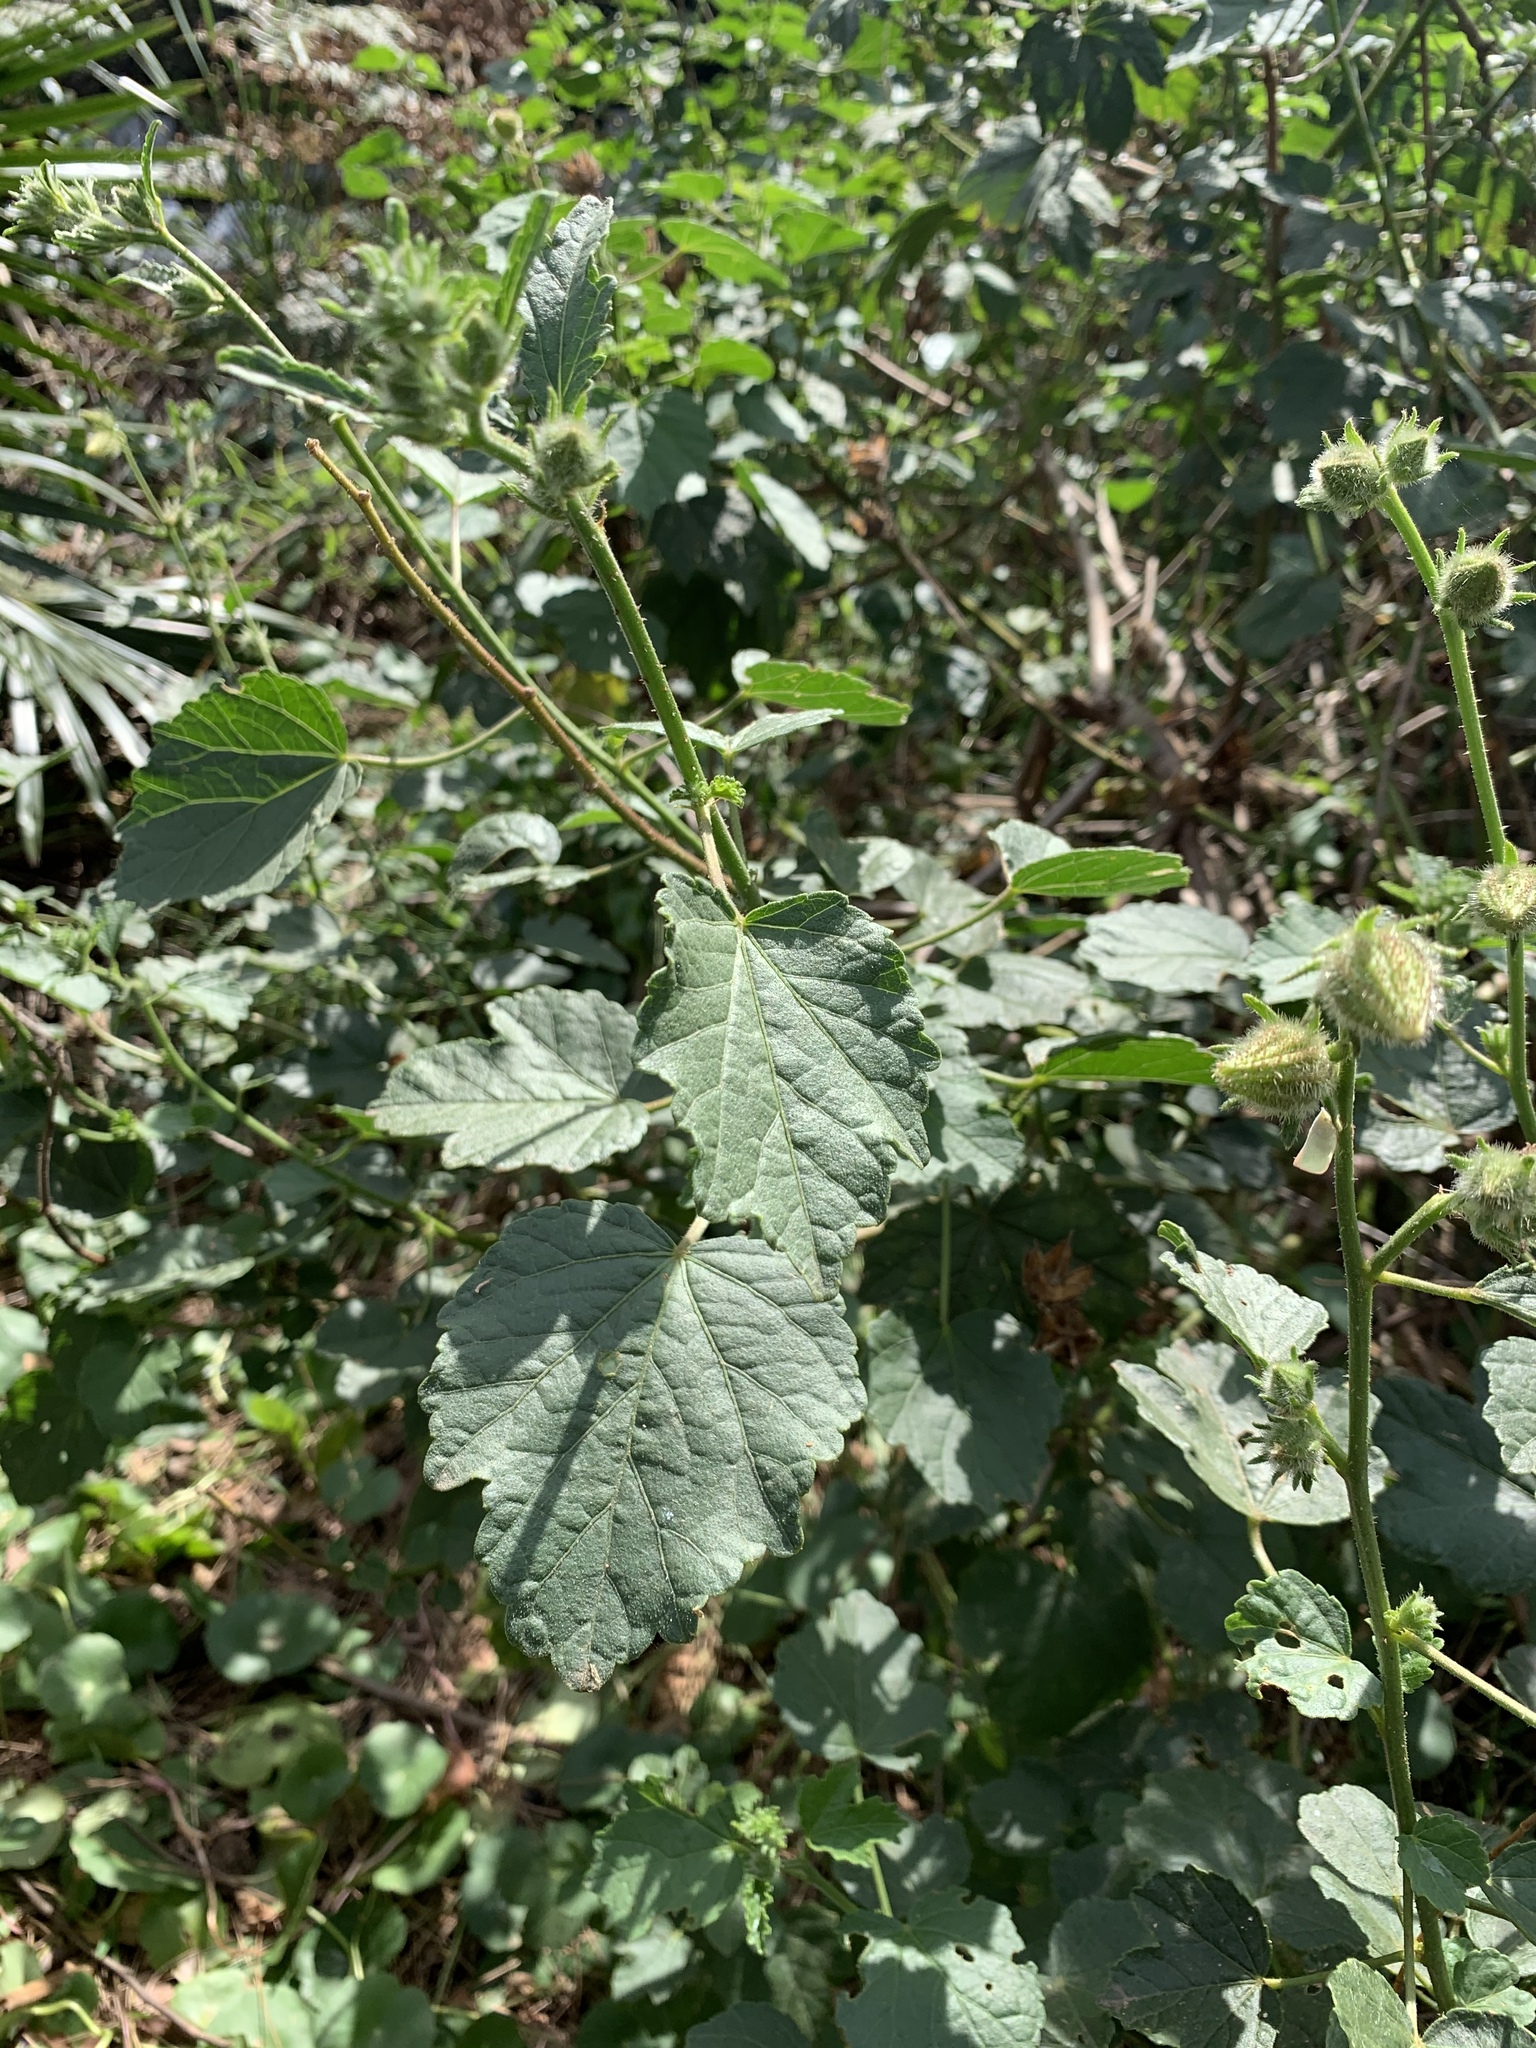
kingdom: Plantae
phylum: Tracheophyta
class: Magnoliopsida
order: Malvales
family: Malvaceae
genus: Hibiscus
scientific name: Hibiscus diversifolius
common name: Cape hibiscus
